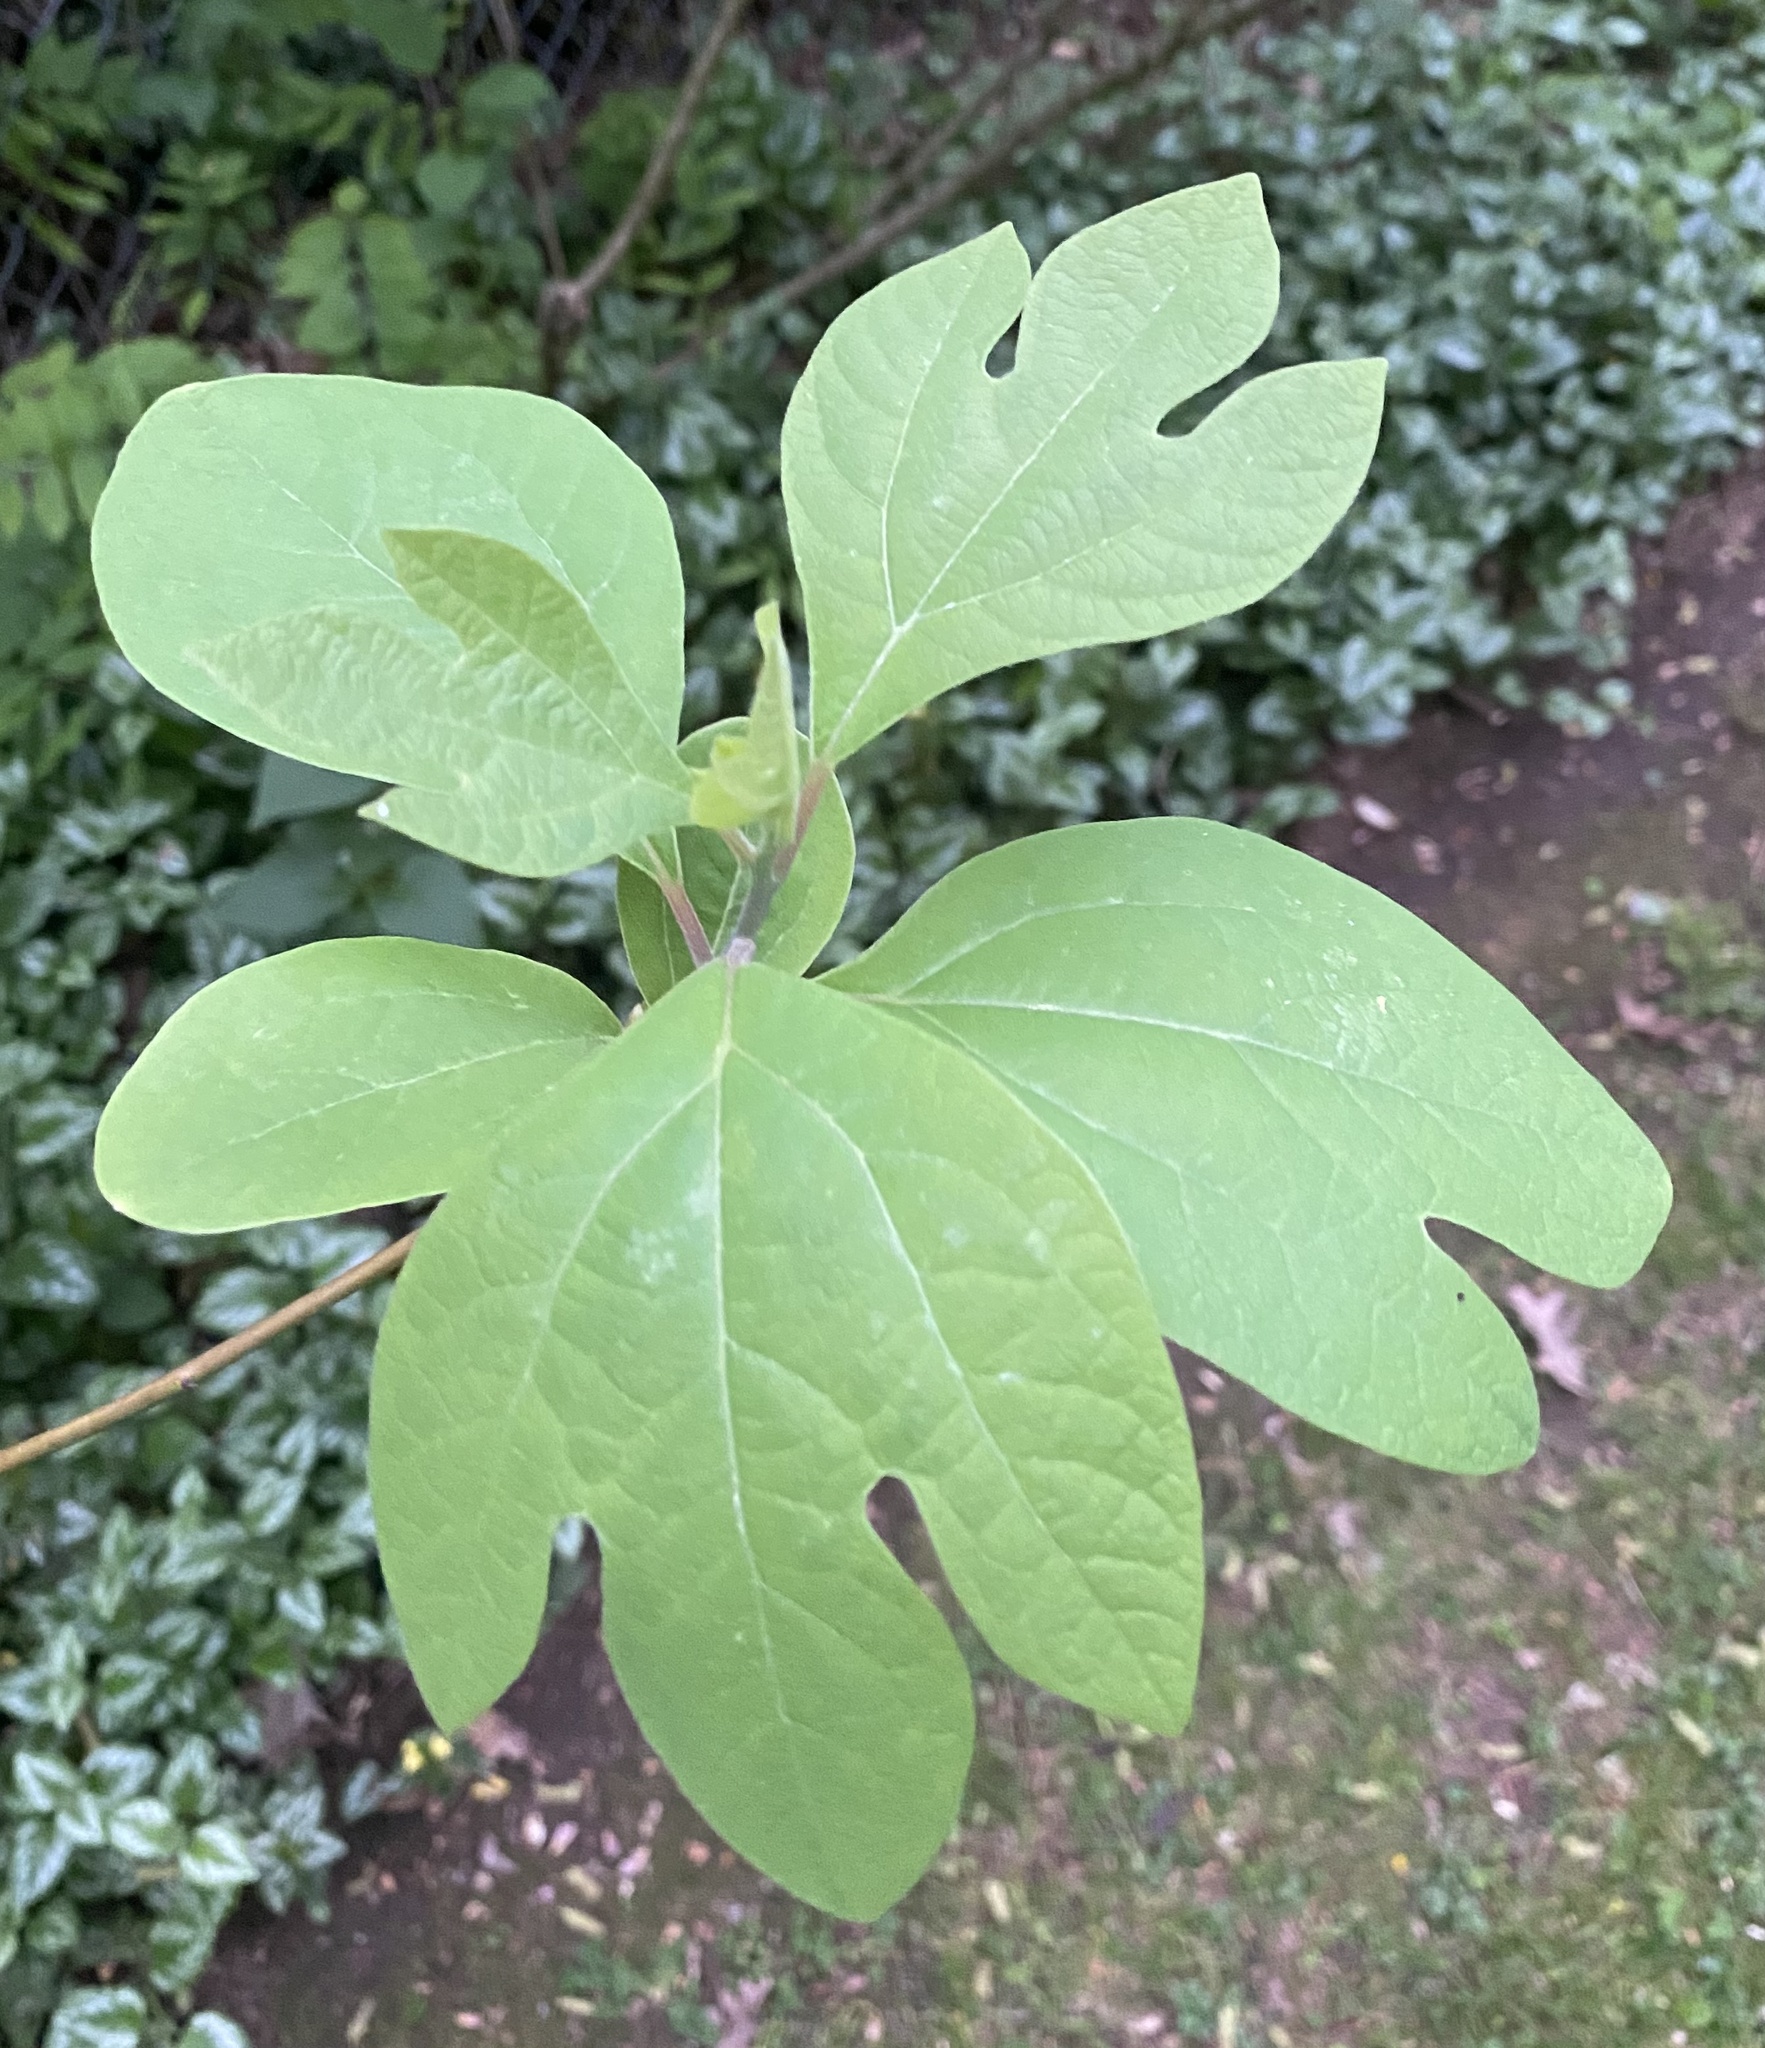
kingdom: Plantae
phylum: Tracheophyta
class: Magnoliopsida
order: Laurales
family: Lauraceae
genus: Sassafras
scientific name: Sassafras albidum
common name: Sassafras
